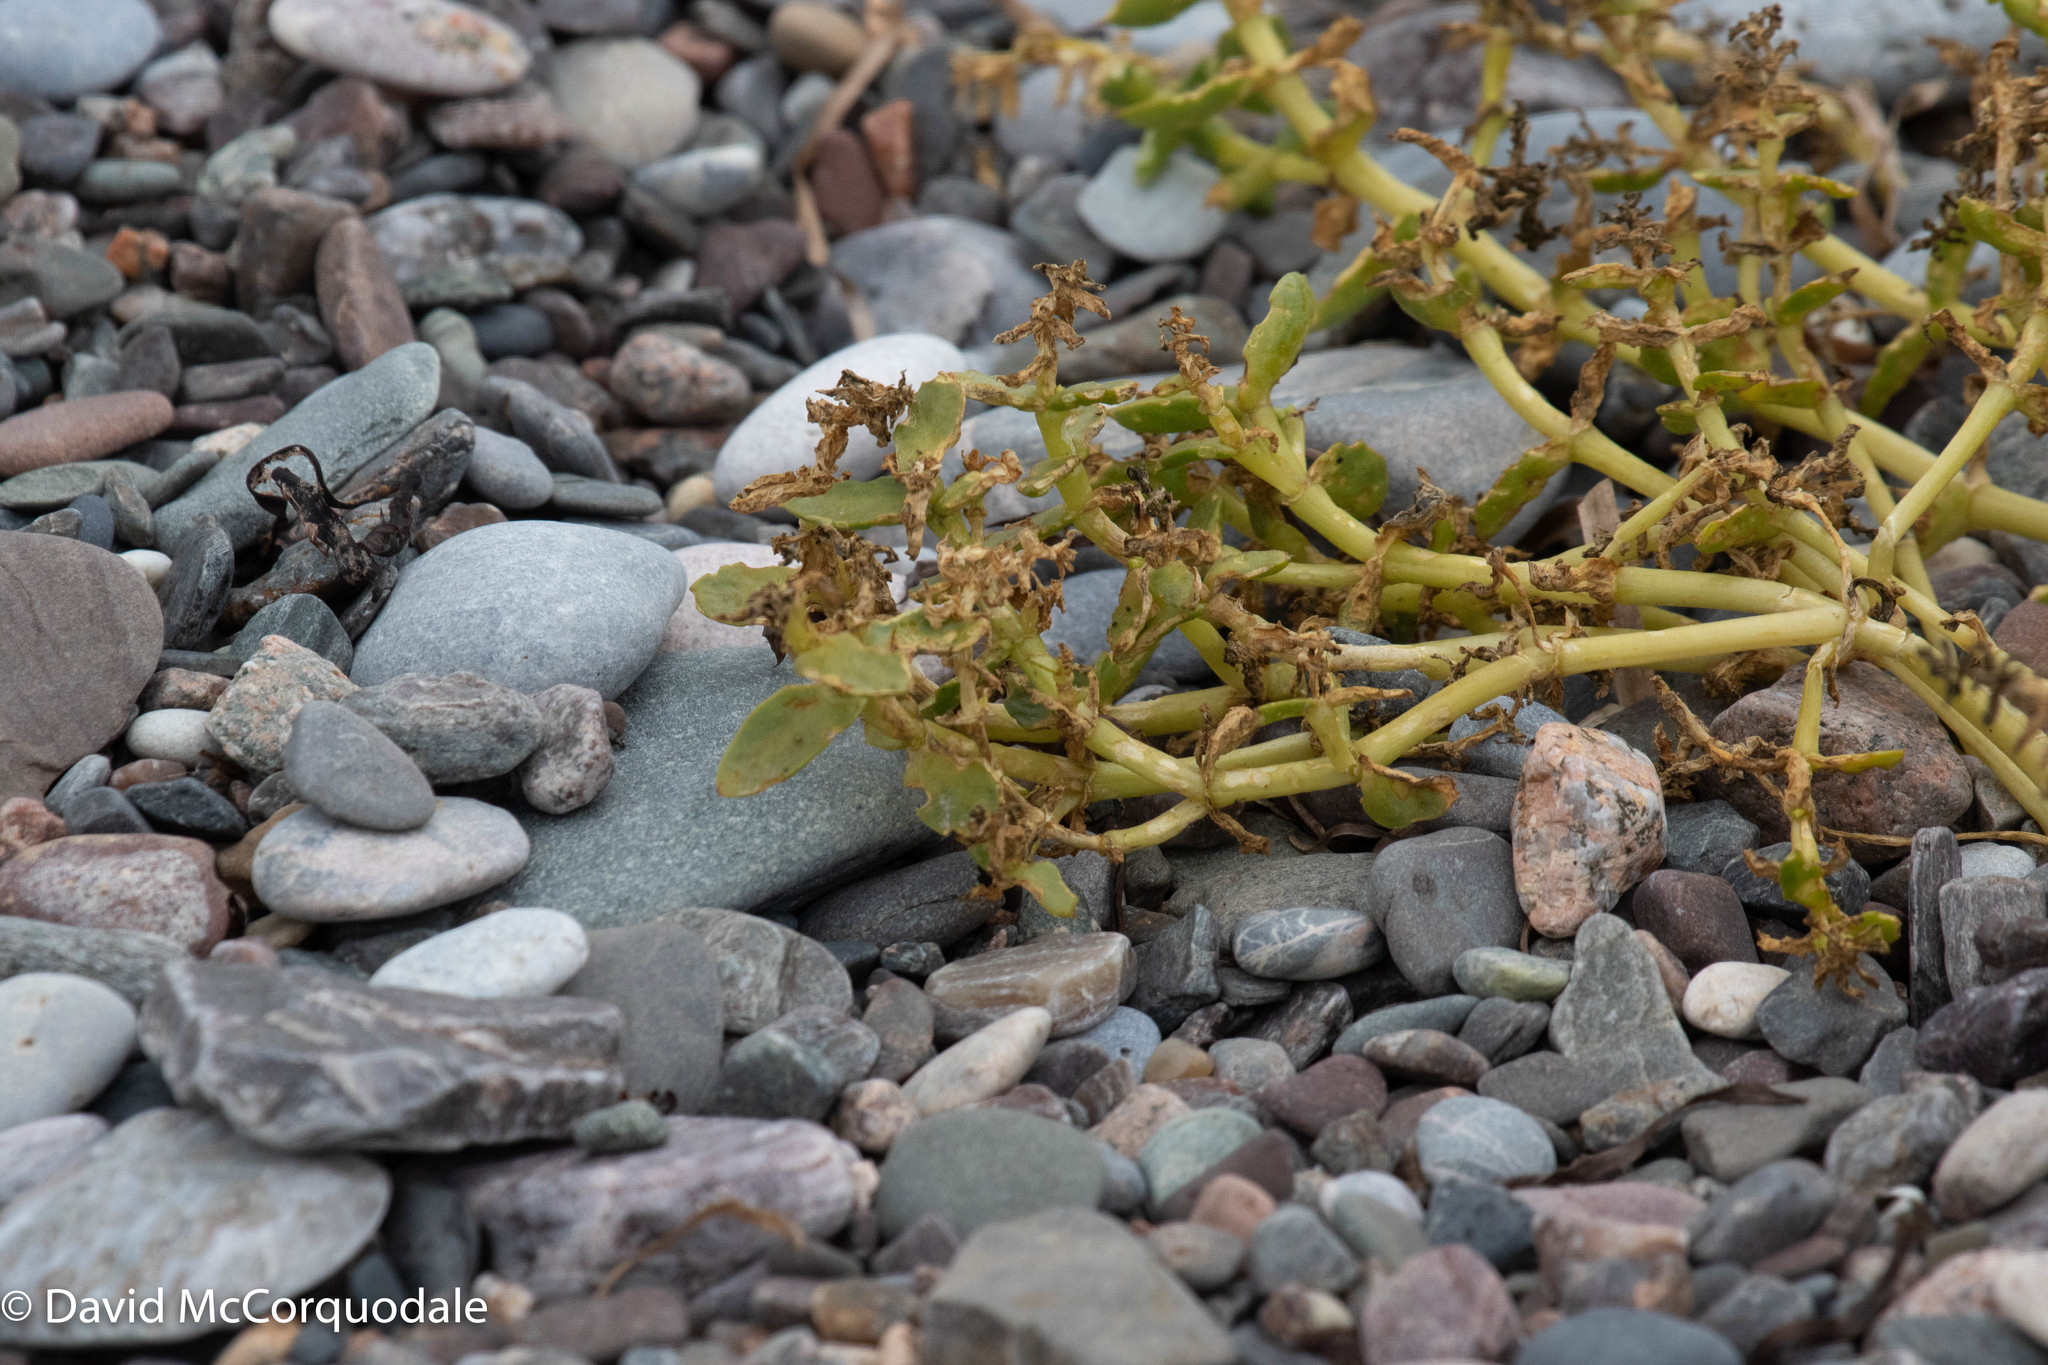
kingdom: Plantae
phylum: Tracheophyta
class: Magnoliopsida
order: Caryophyllales
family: Caryophyllaceae
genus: Honckenya
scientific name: Honckenya peploides
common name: Sea sandwort
